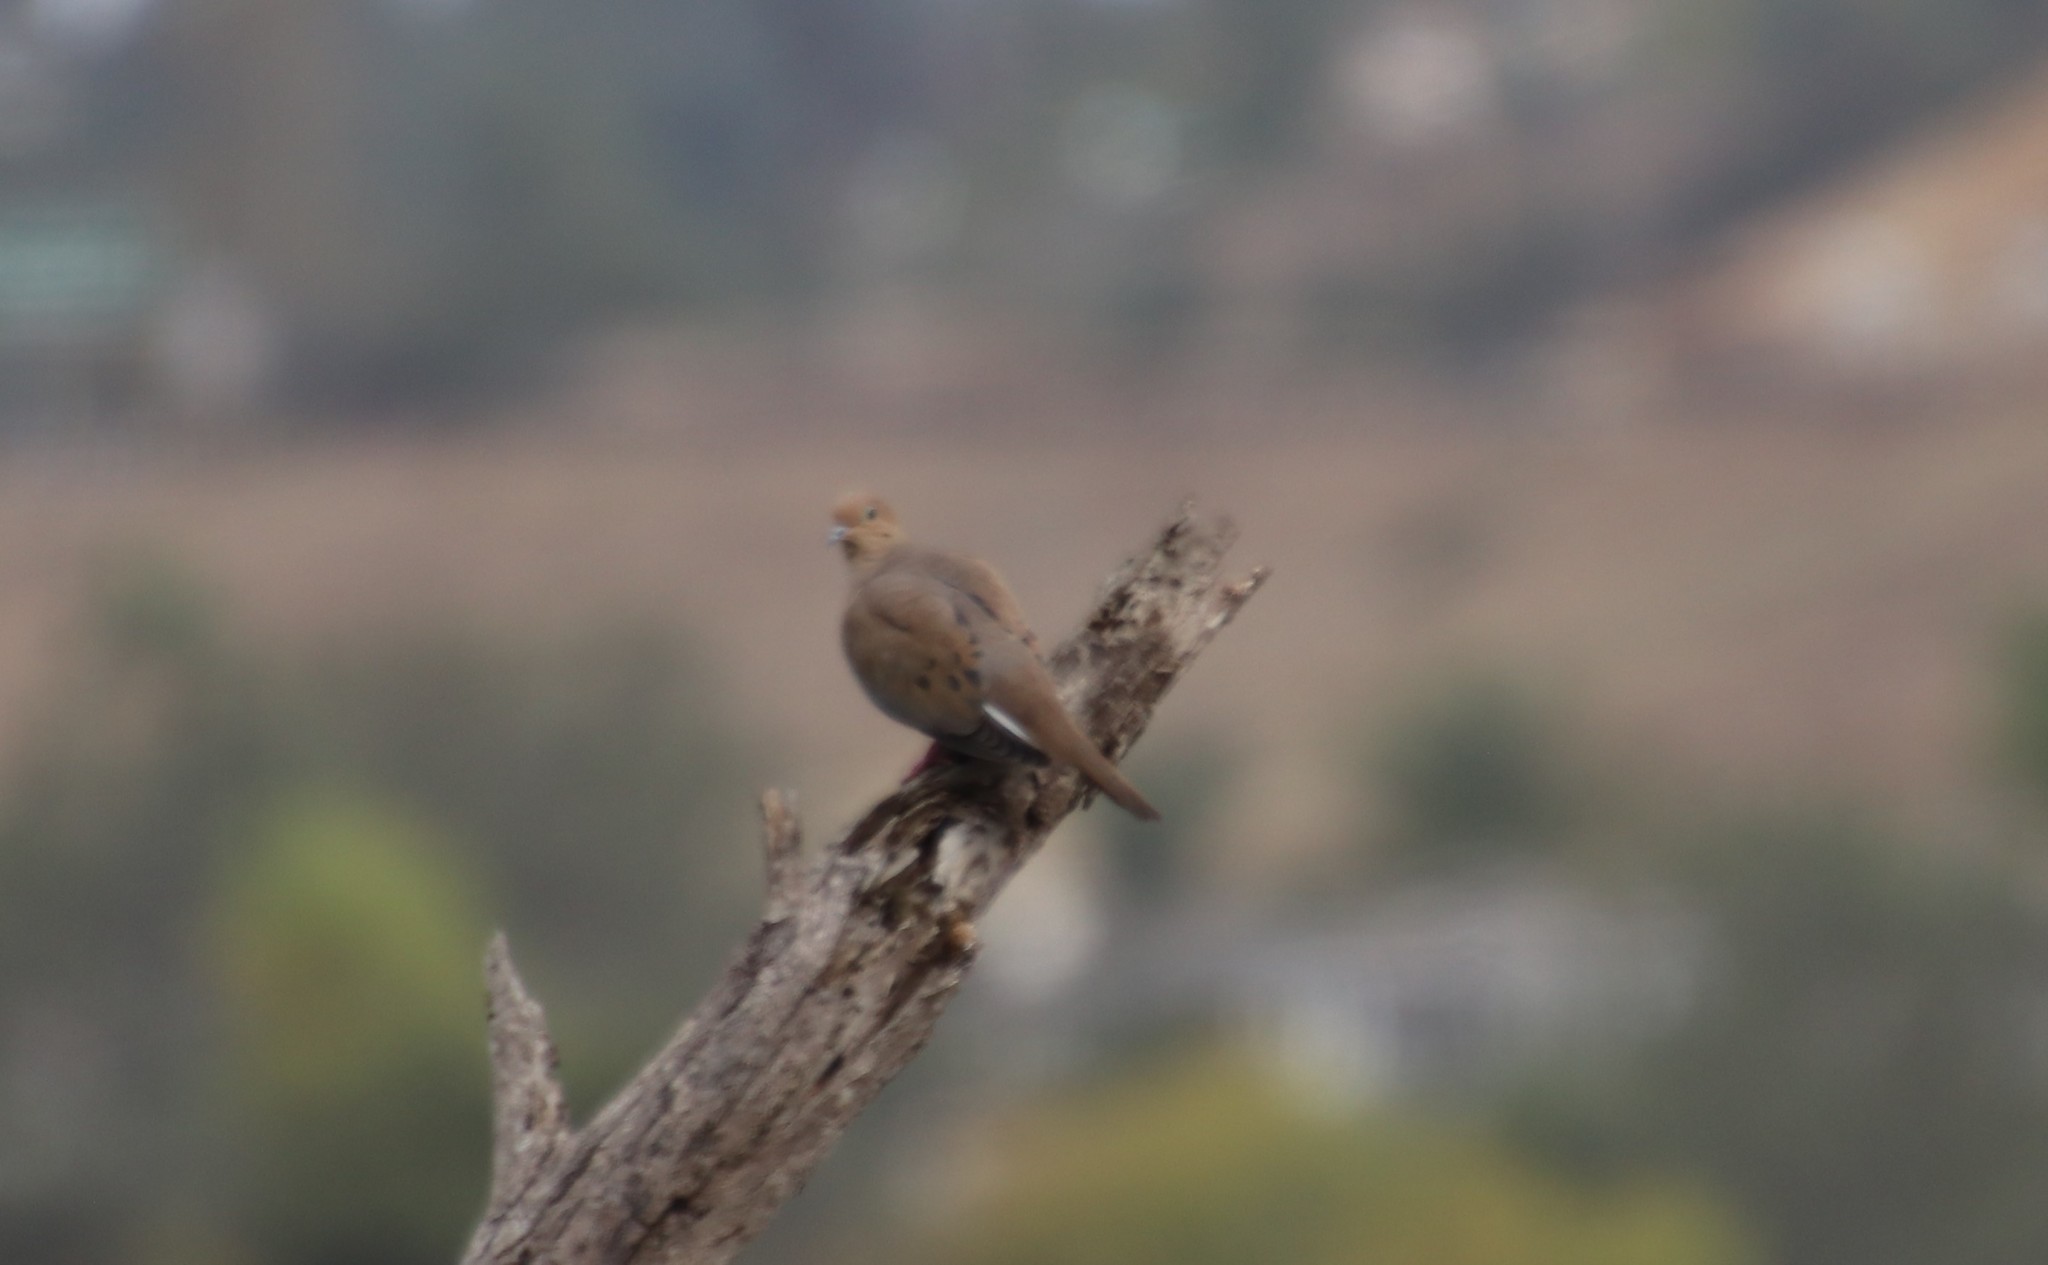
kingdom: Animalia
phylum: Chordata
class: Aves
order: Columbiformes
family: Columbidae
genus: Zenaida
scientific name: Zenaida macroura
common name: Mourning dove
